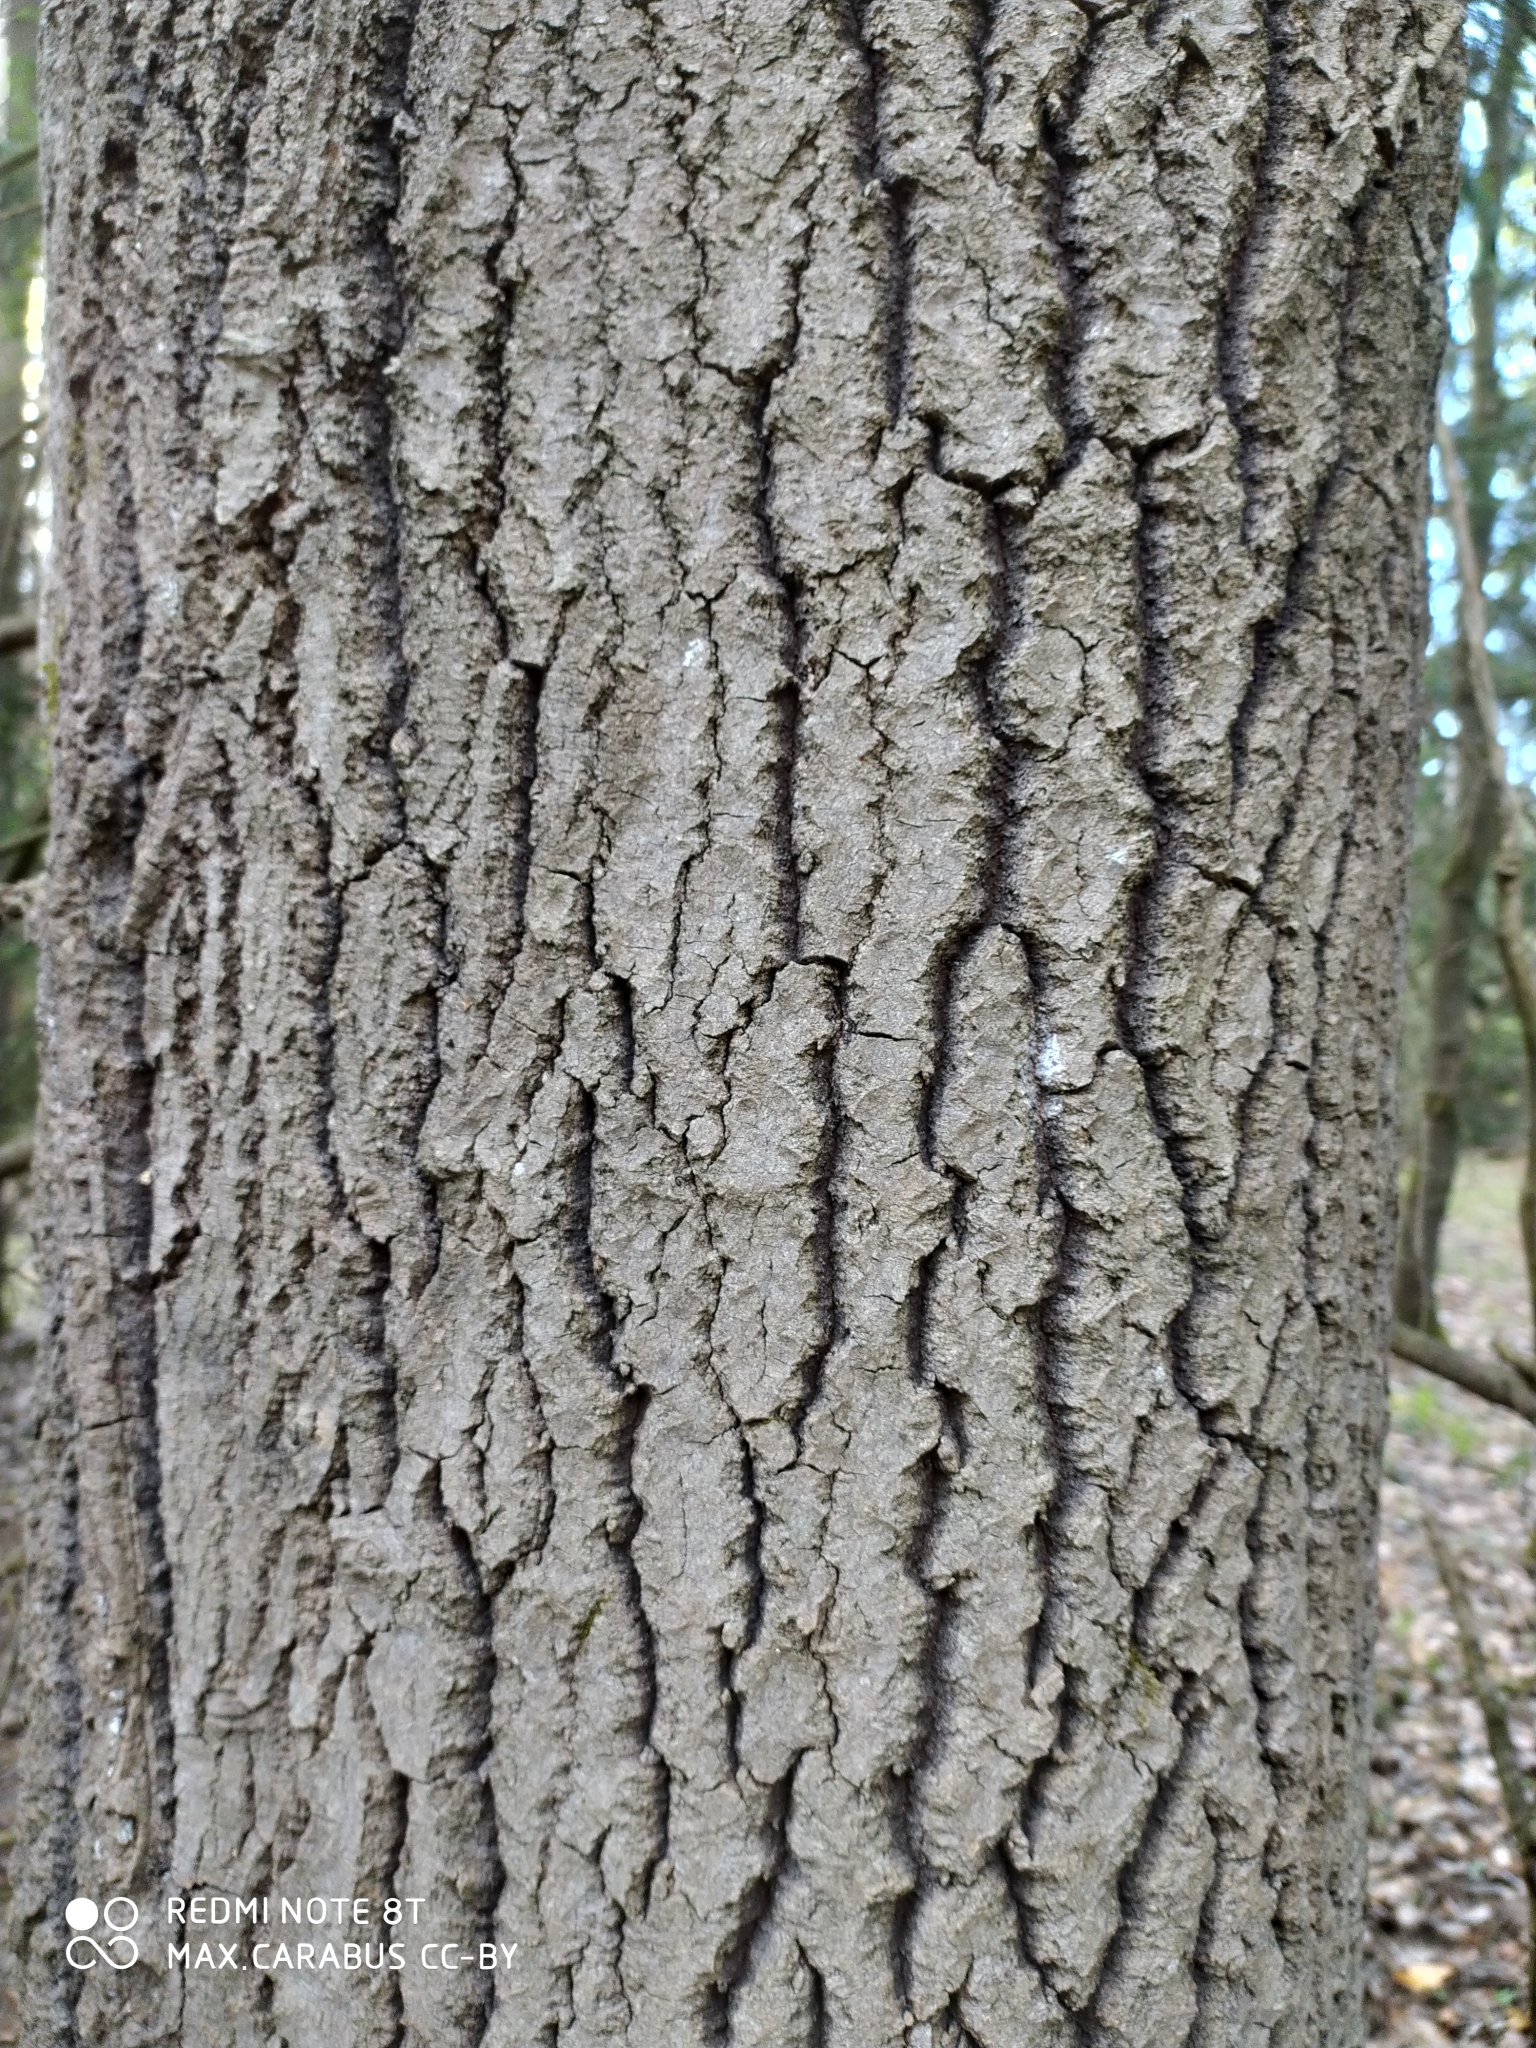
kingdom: Plantae
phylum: Tracheophyta
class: Magnoliopsida
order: Malpighiales
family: Salicaceae
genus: Populus
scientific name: Populus tremula
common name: European aspen
